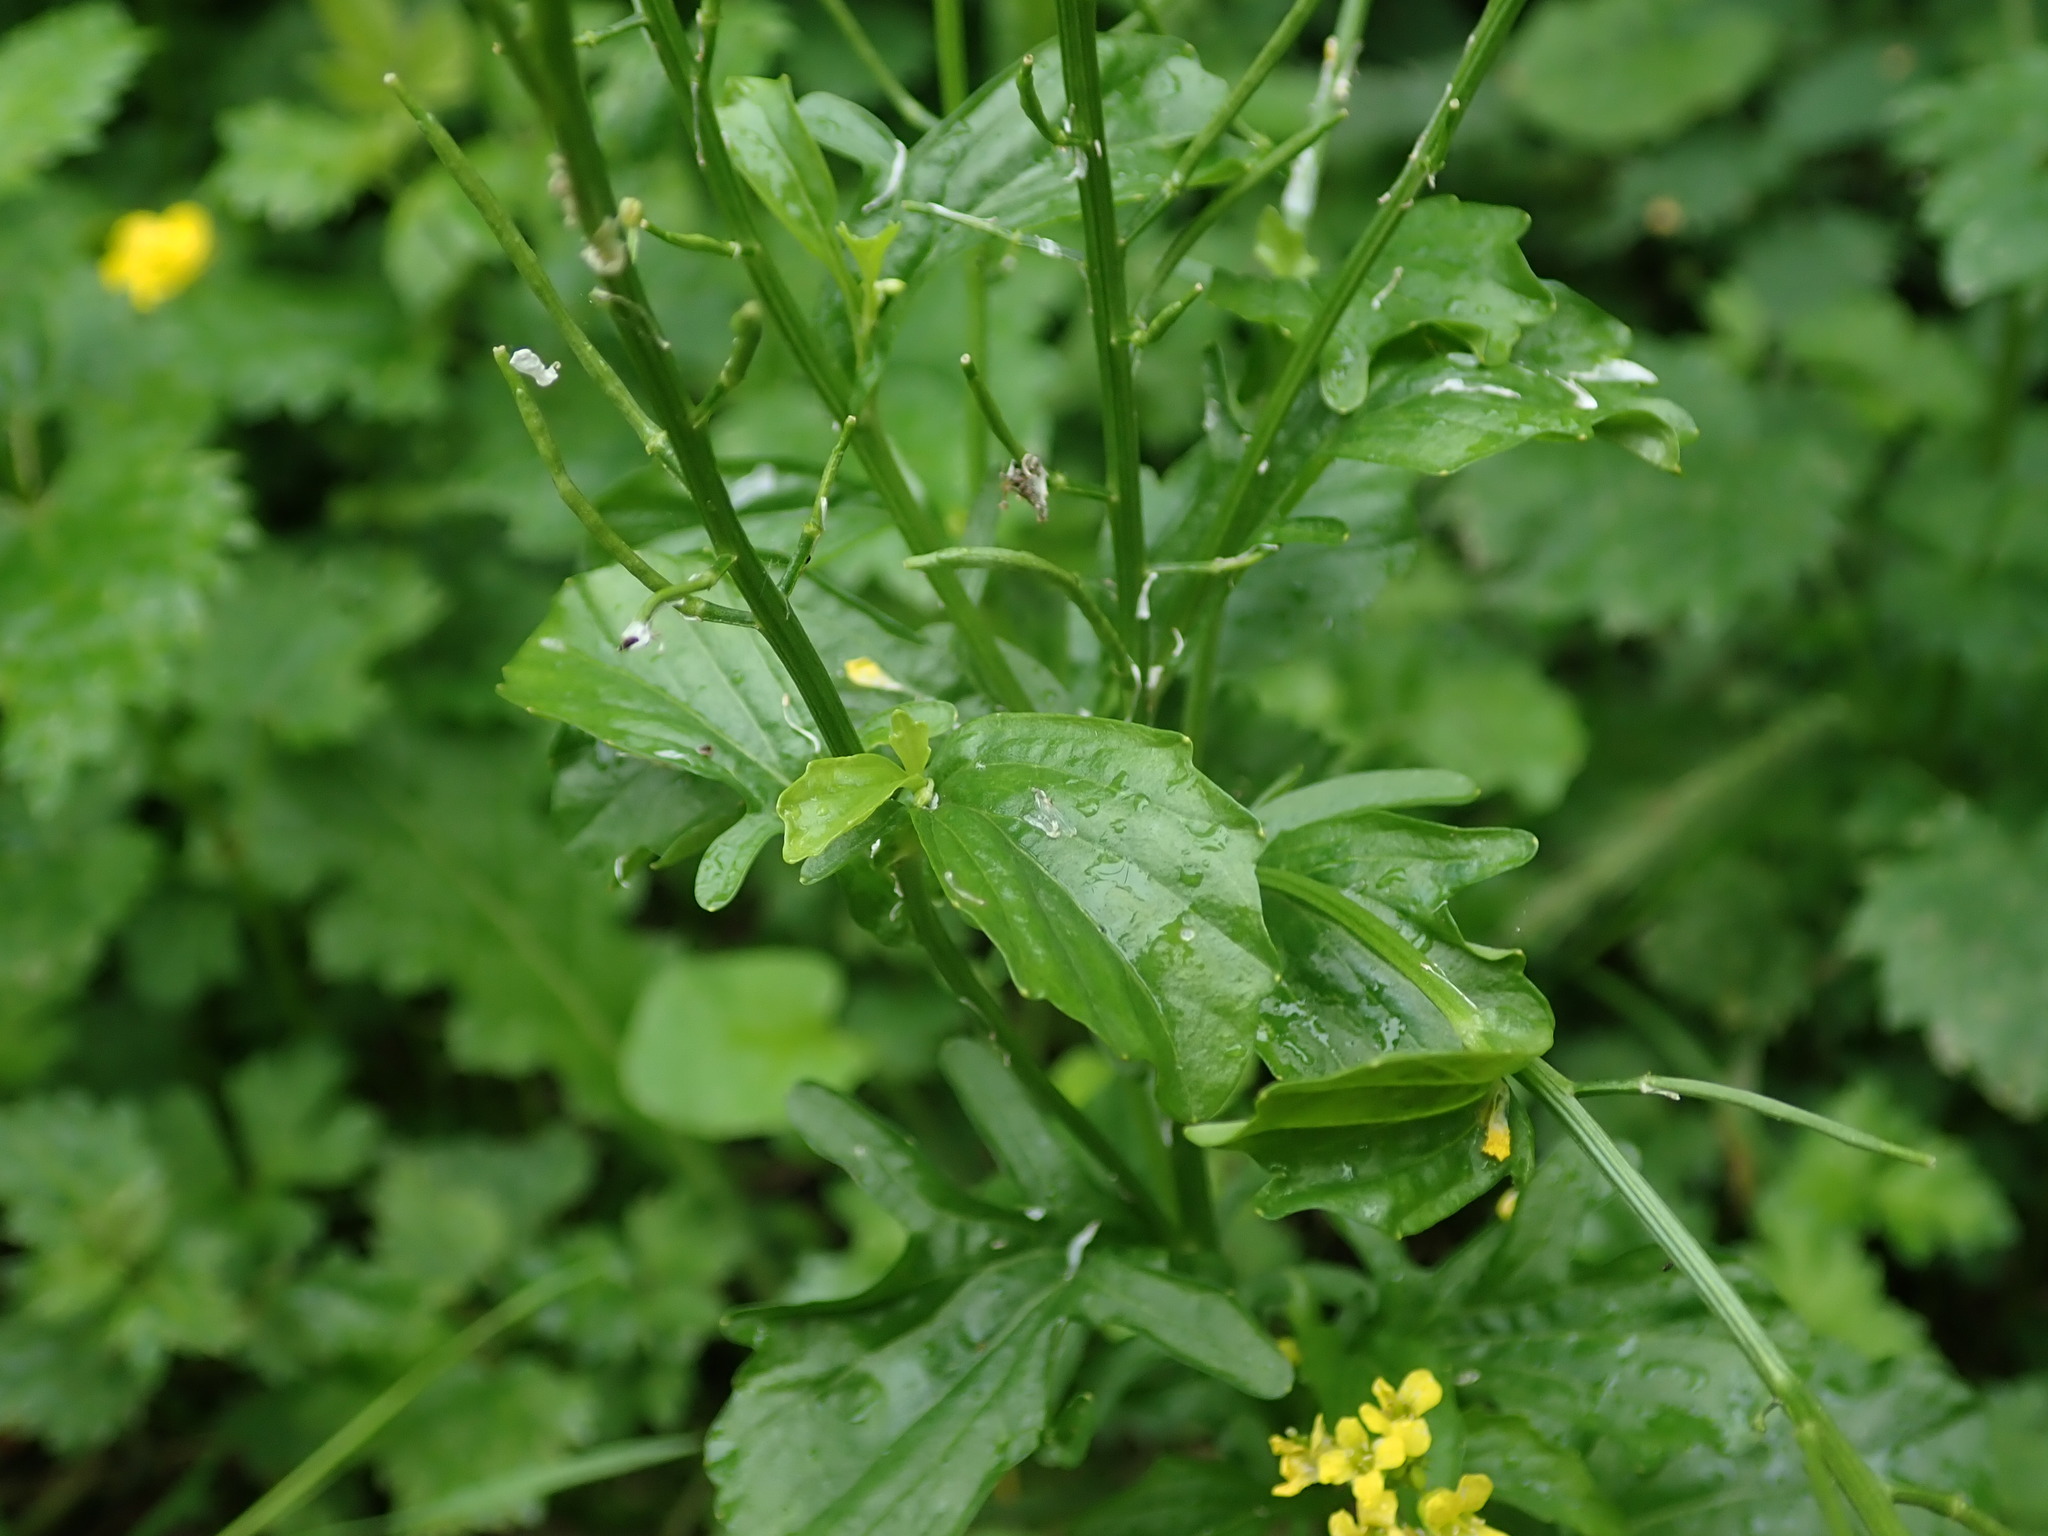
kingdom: Plantae
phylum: Tracheophyta
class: Magnoliopsida
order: Brassicales
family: Brassicaceae
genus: Barbarea
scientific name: Barbarea vulgaris
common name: Cressy-greens
